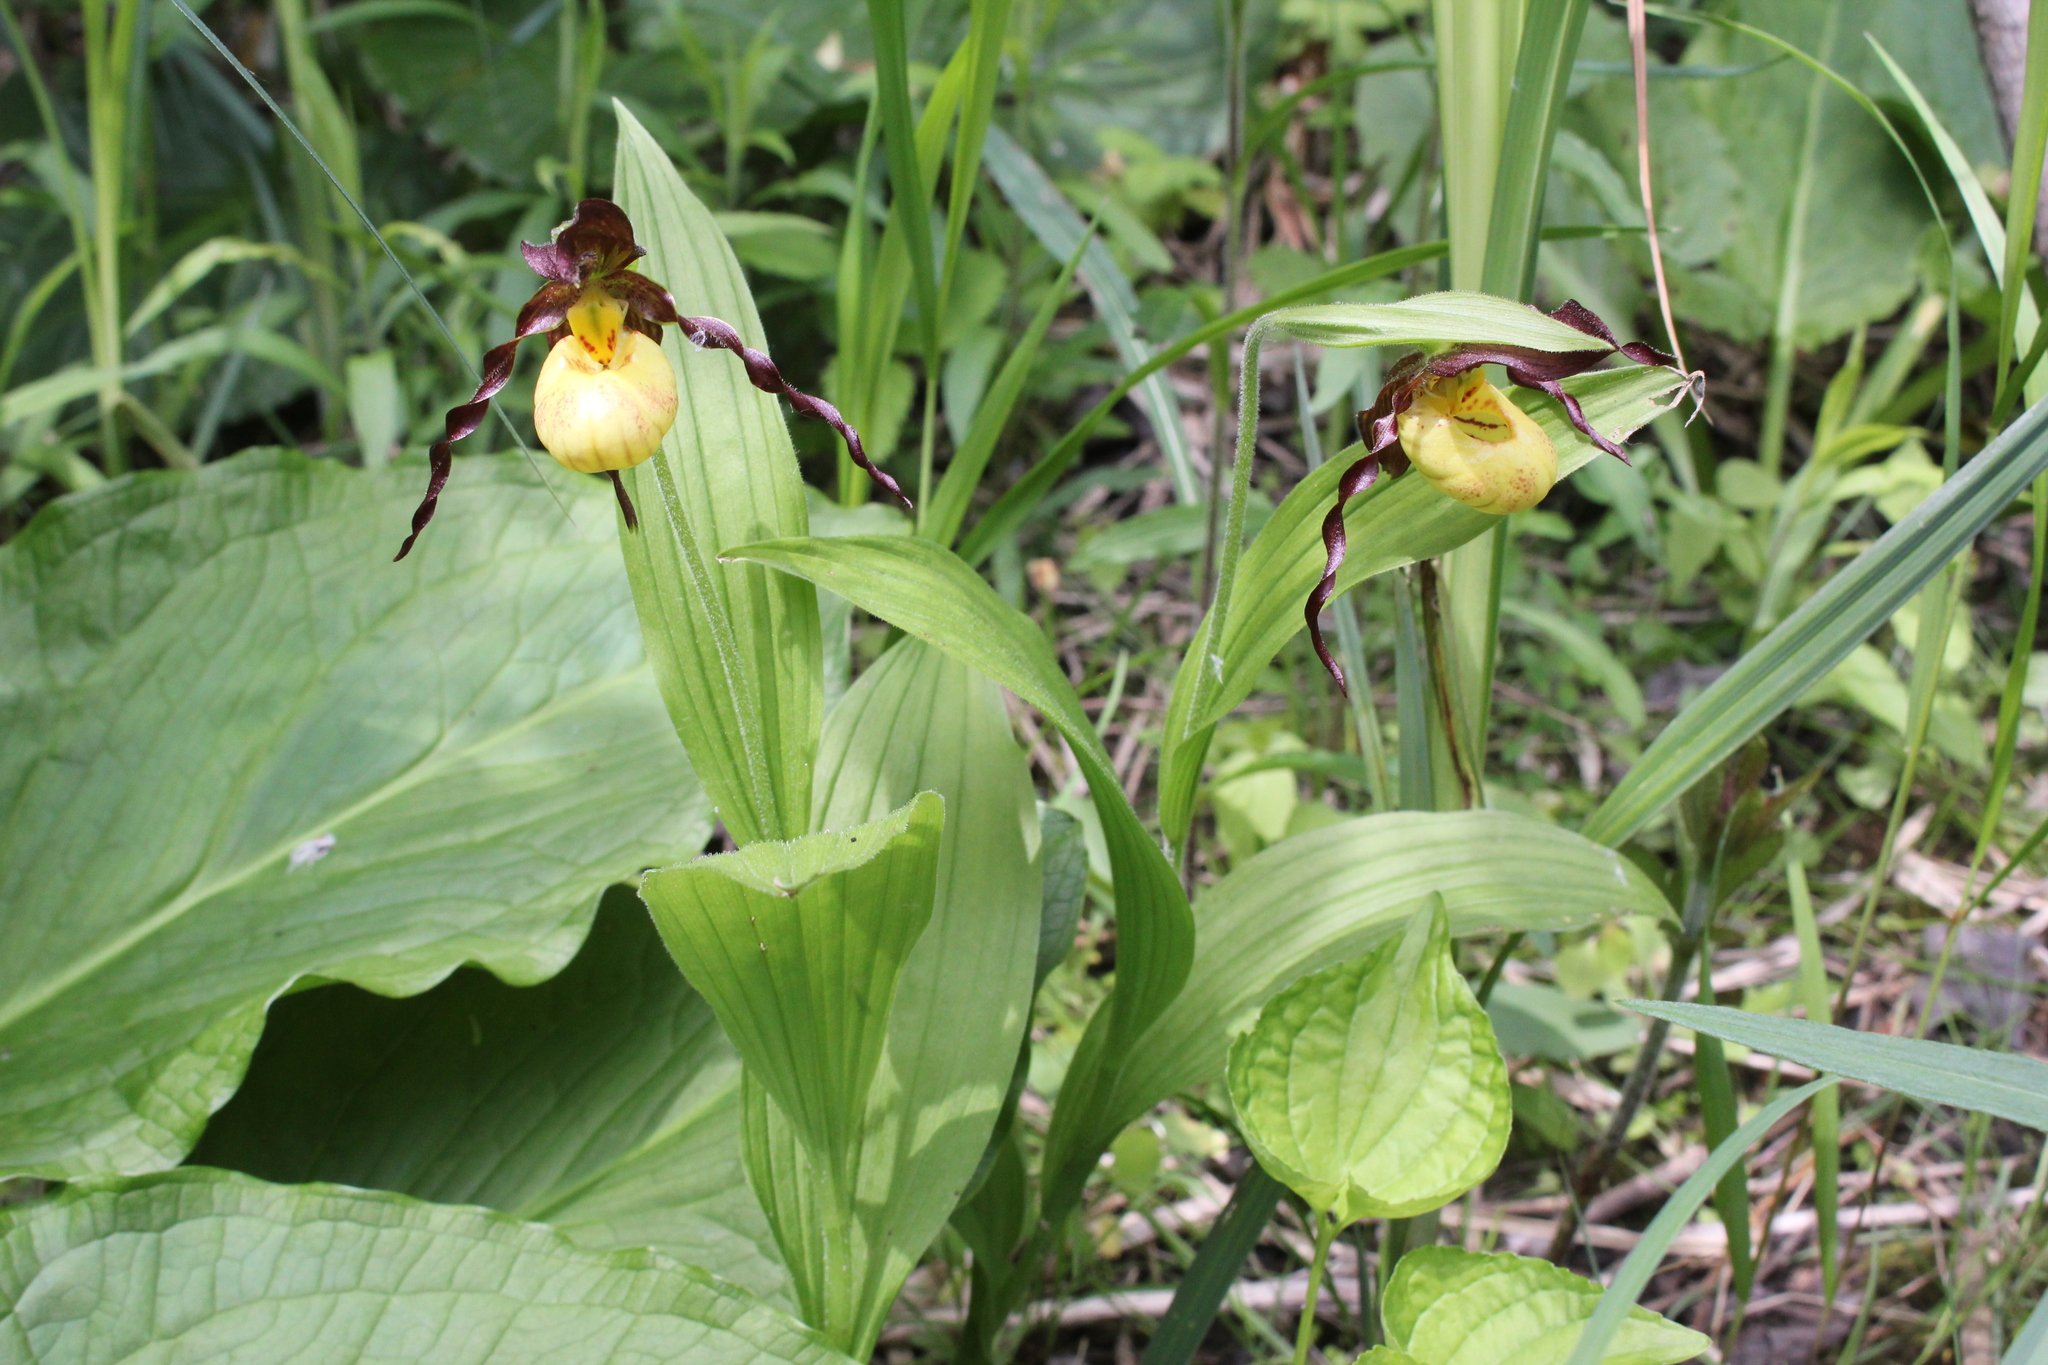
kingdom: Plantae
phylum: Tracheophyta
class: Liliopsida
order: Asparagales
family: Orchidaceae
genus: Cypripedium
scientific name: Cypripedium parviflorum
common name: American yellow lady's-slipper
